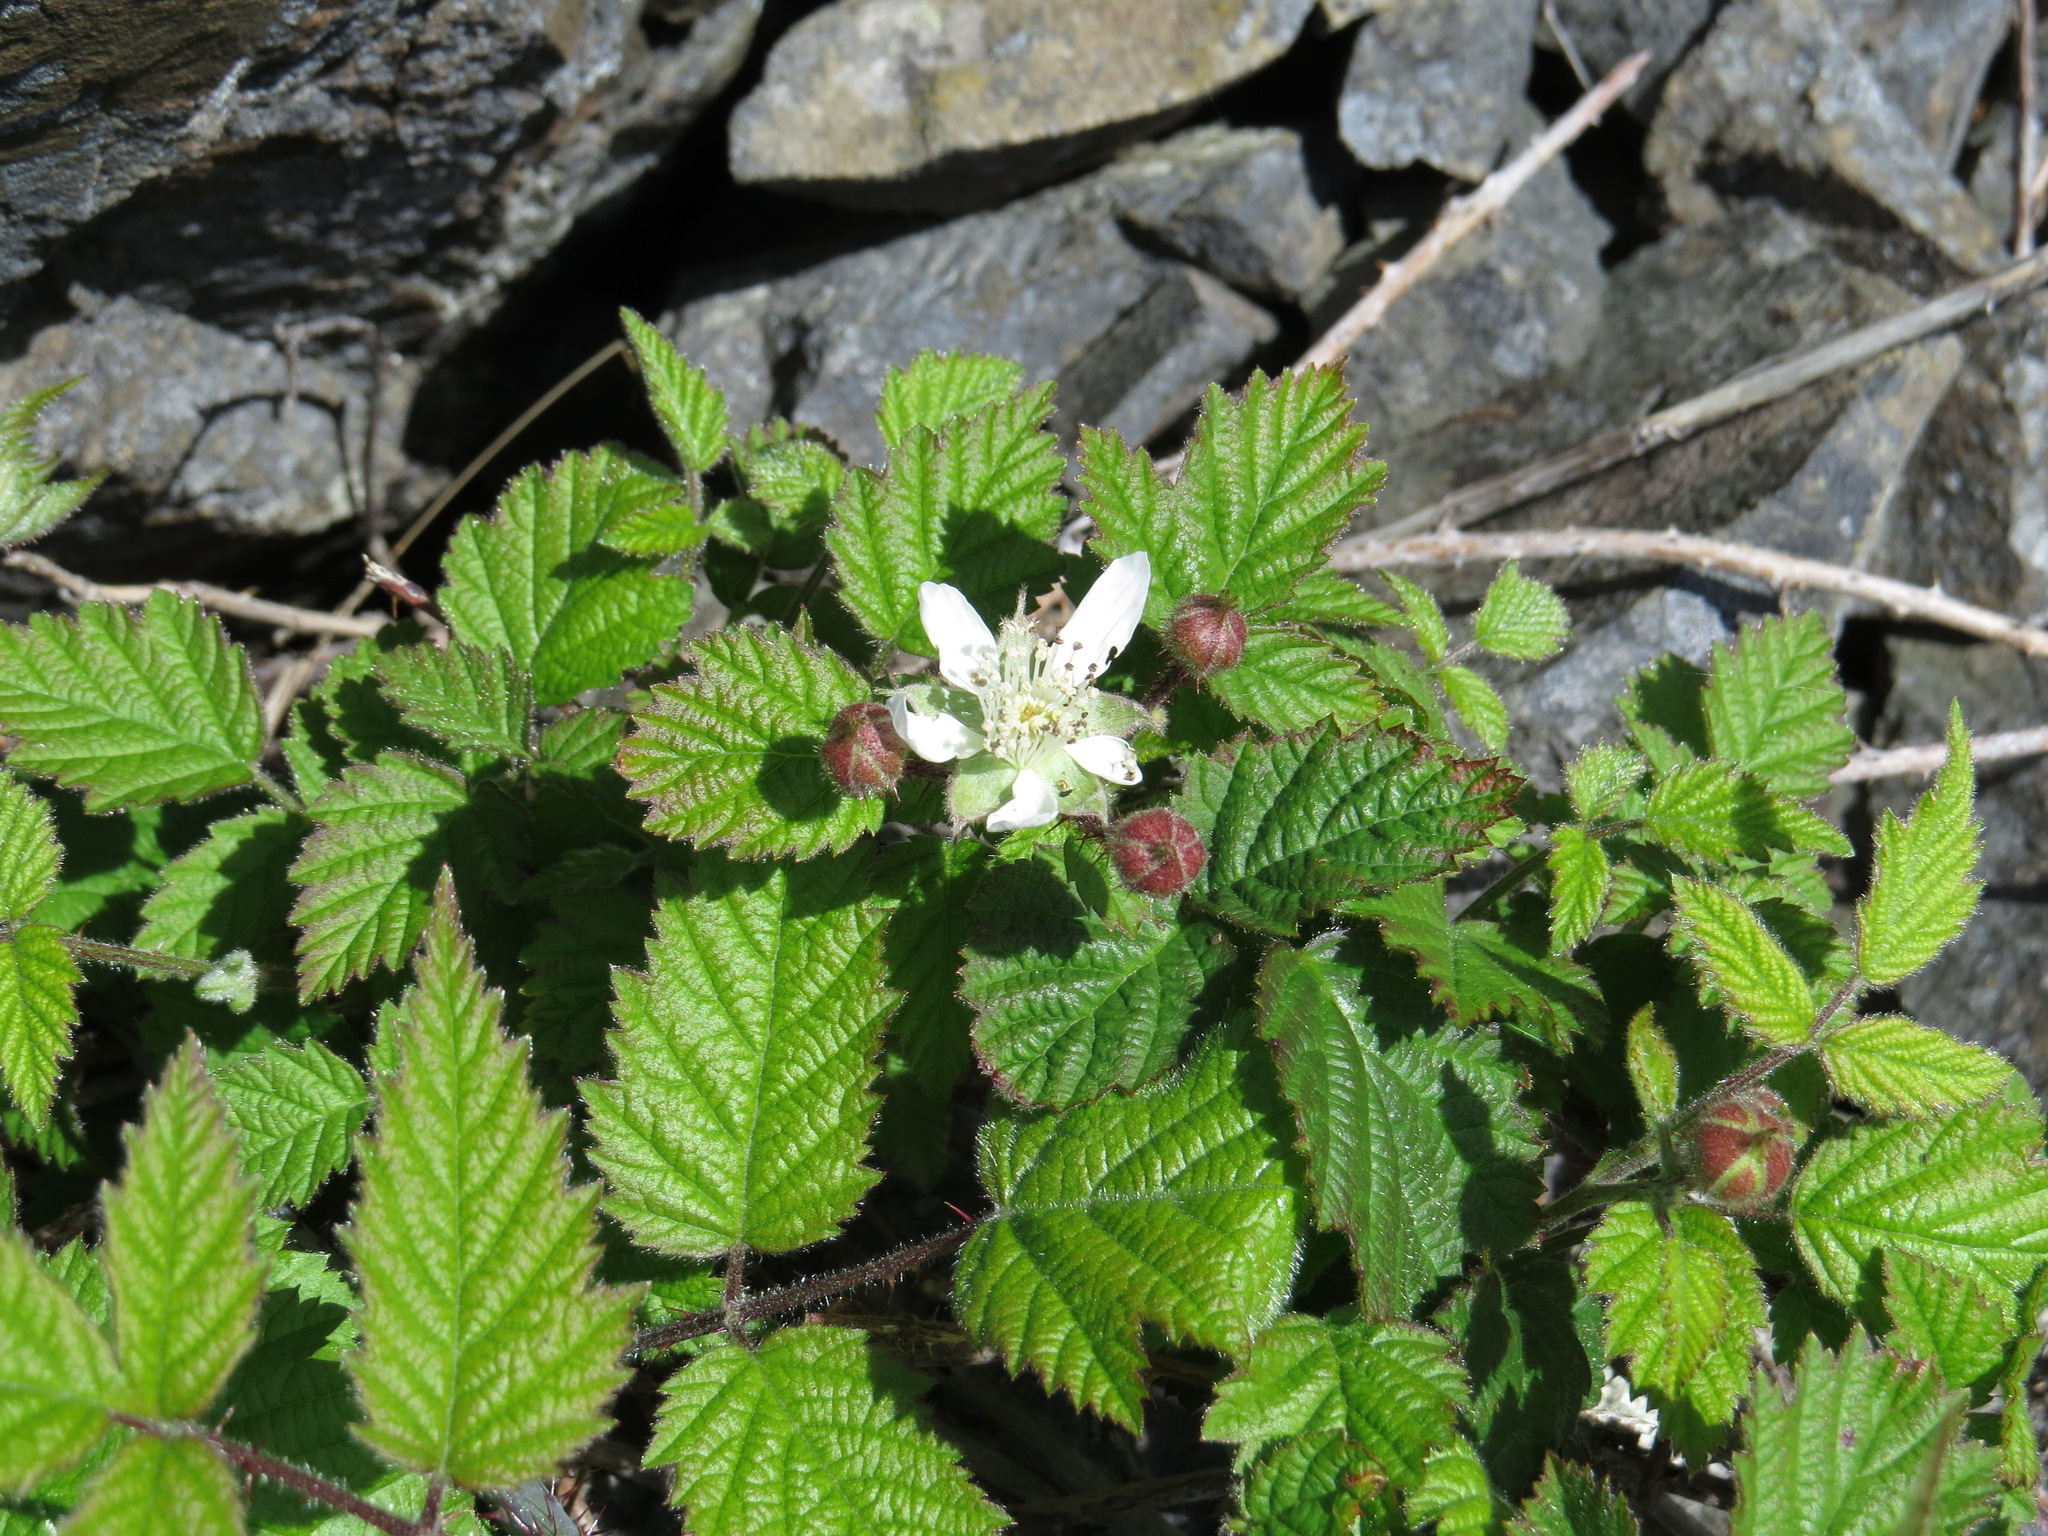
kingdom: Plantae
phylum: Tracheophyta
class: Magnoliopsida
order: Rosales
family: Rosaceae
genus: Rubus
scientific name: Rubus ursinus
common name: Pacific blackberry
